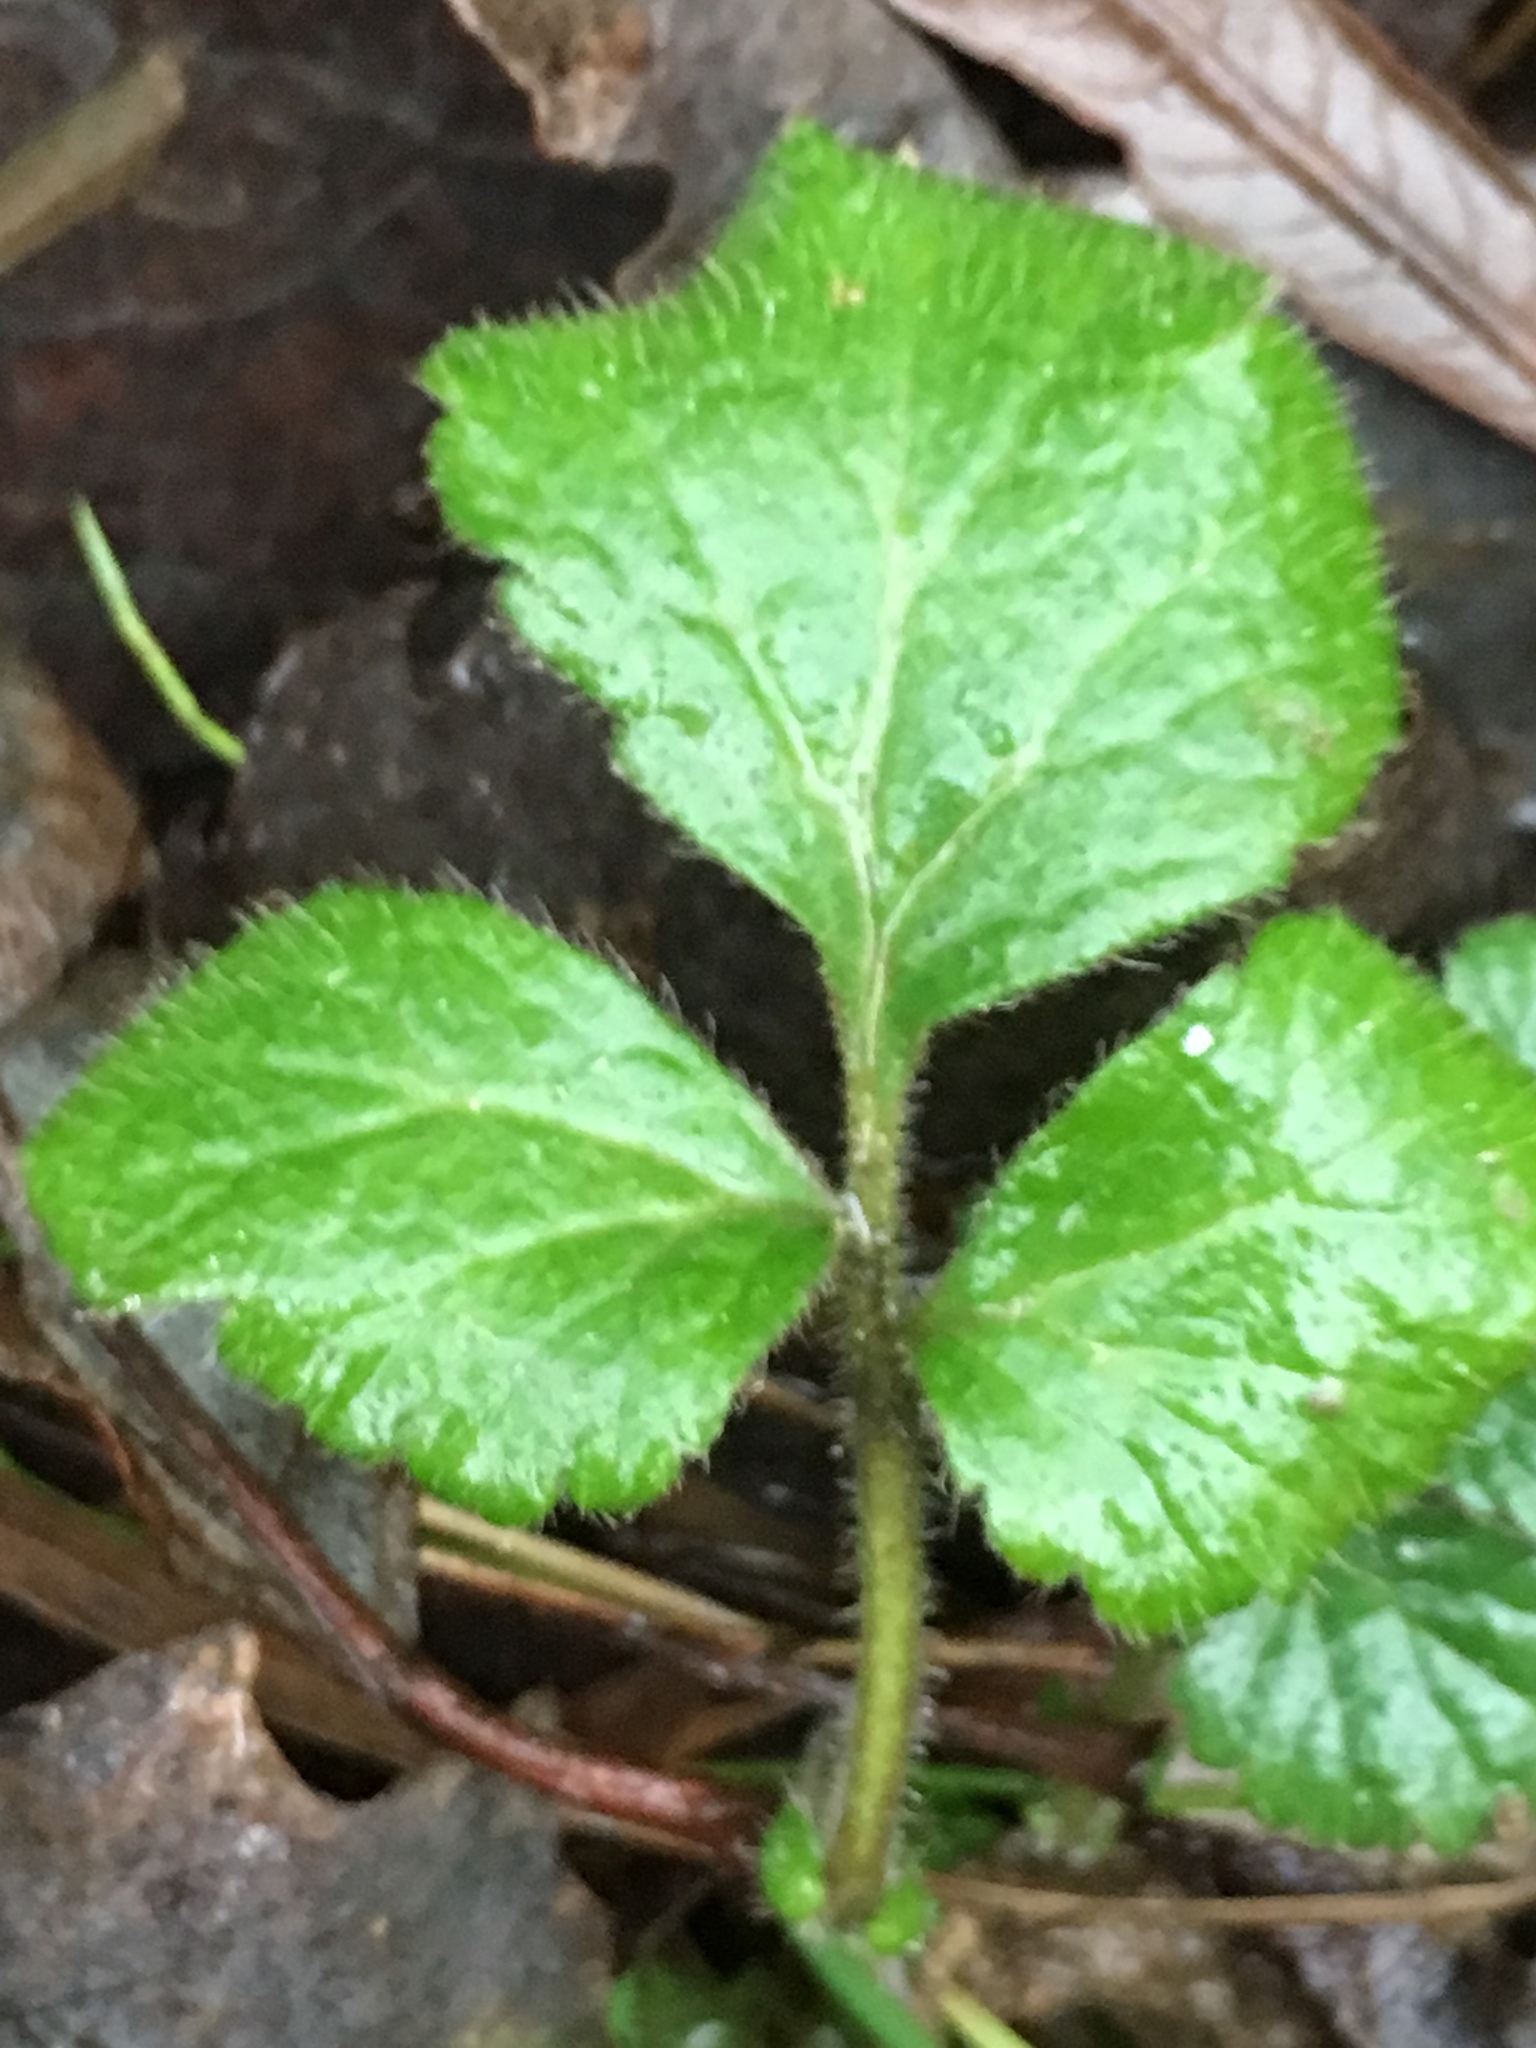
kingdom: Plantae
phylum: Tracheophyta
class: Magnoliopsida
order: Rosales
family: Rosaceae
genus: Geum
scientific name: Geum urbanum
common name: Wood avens
